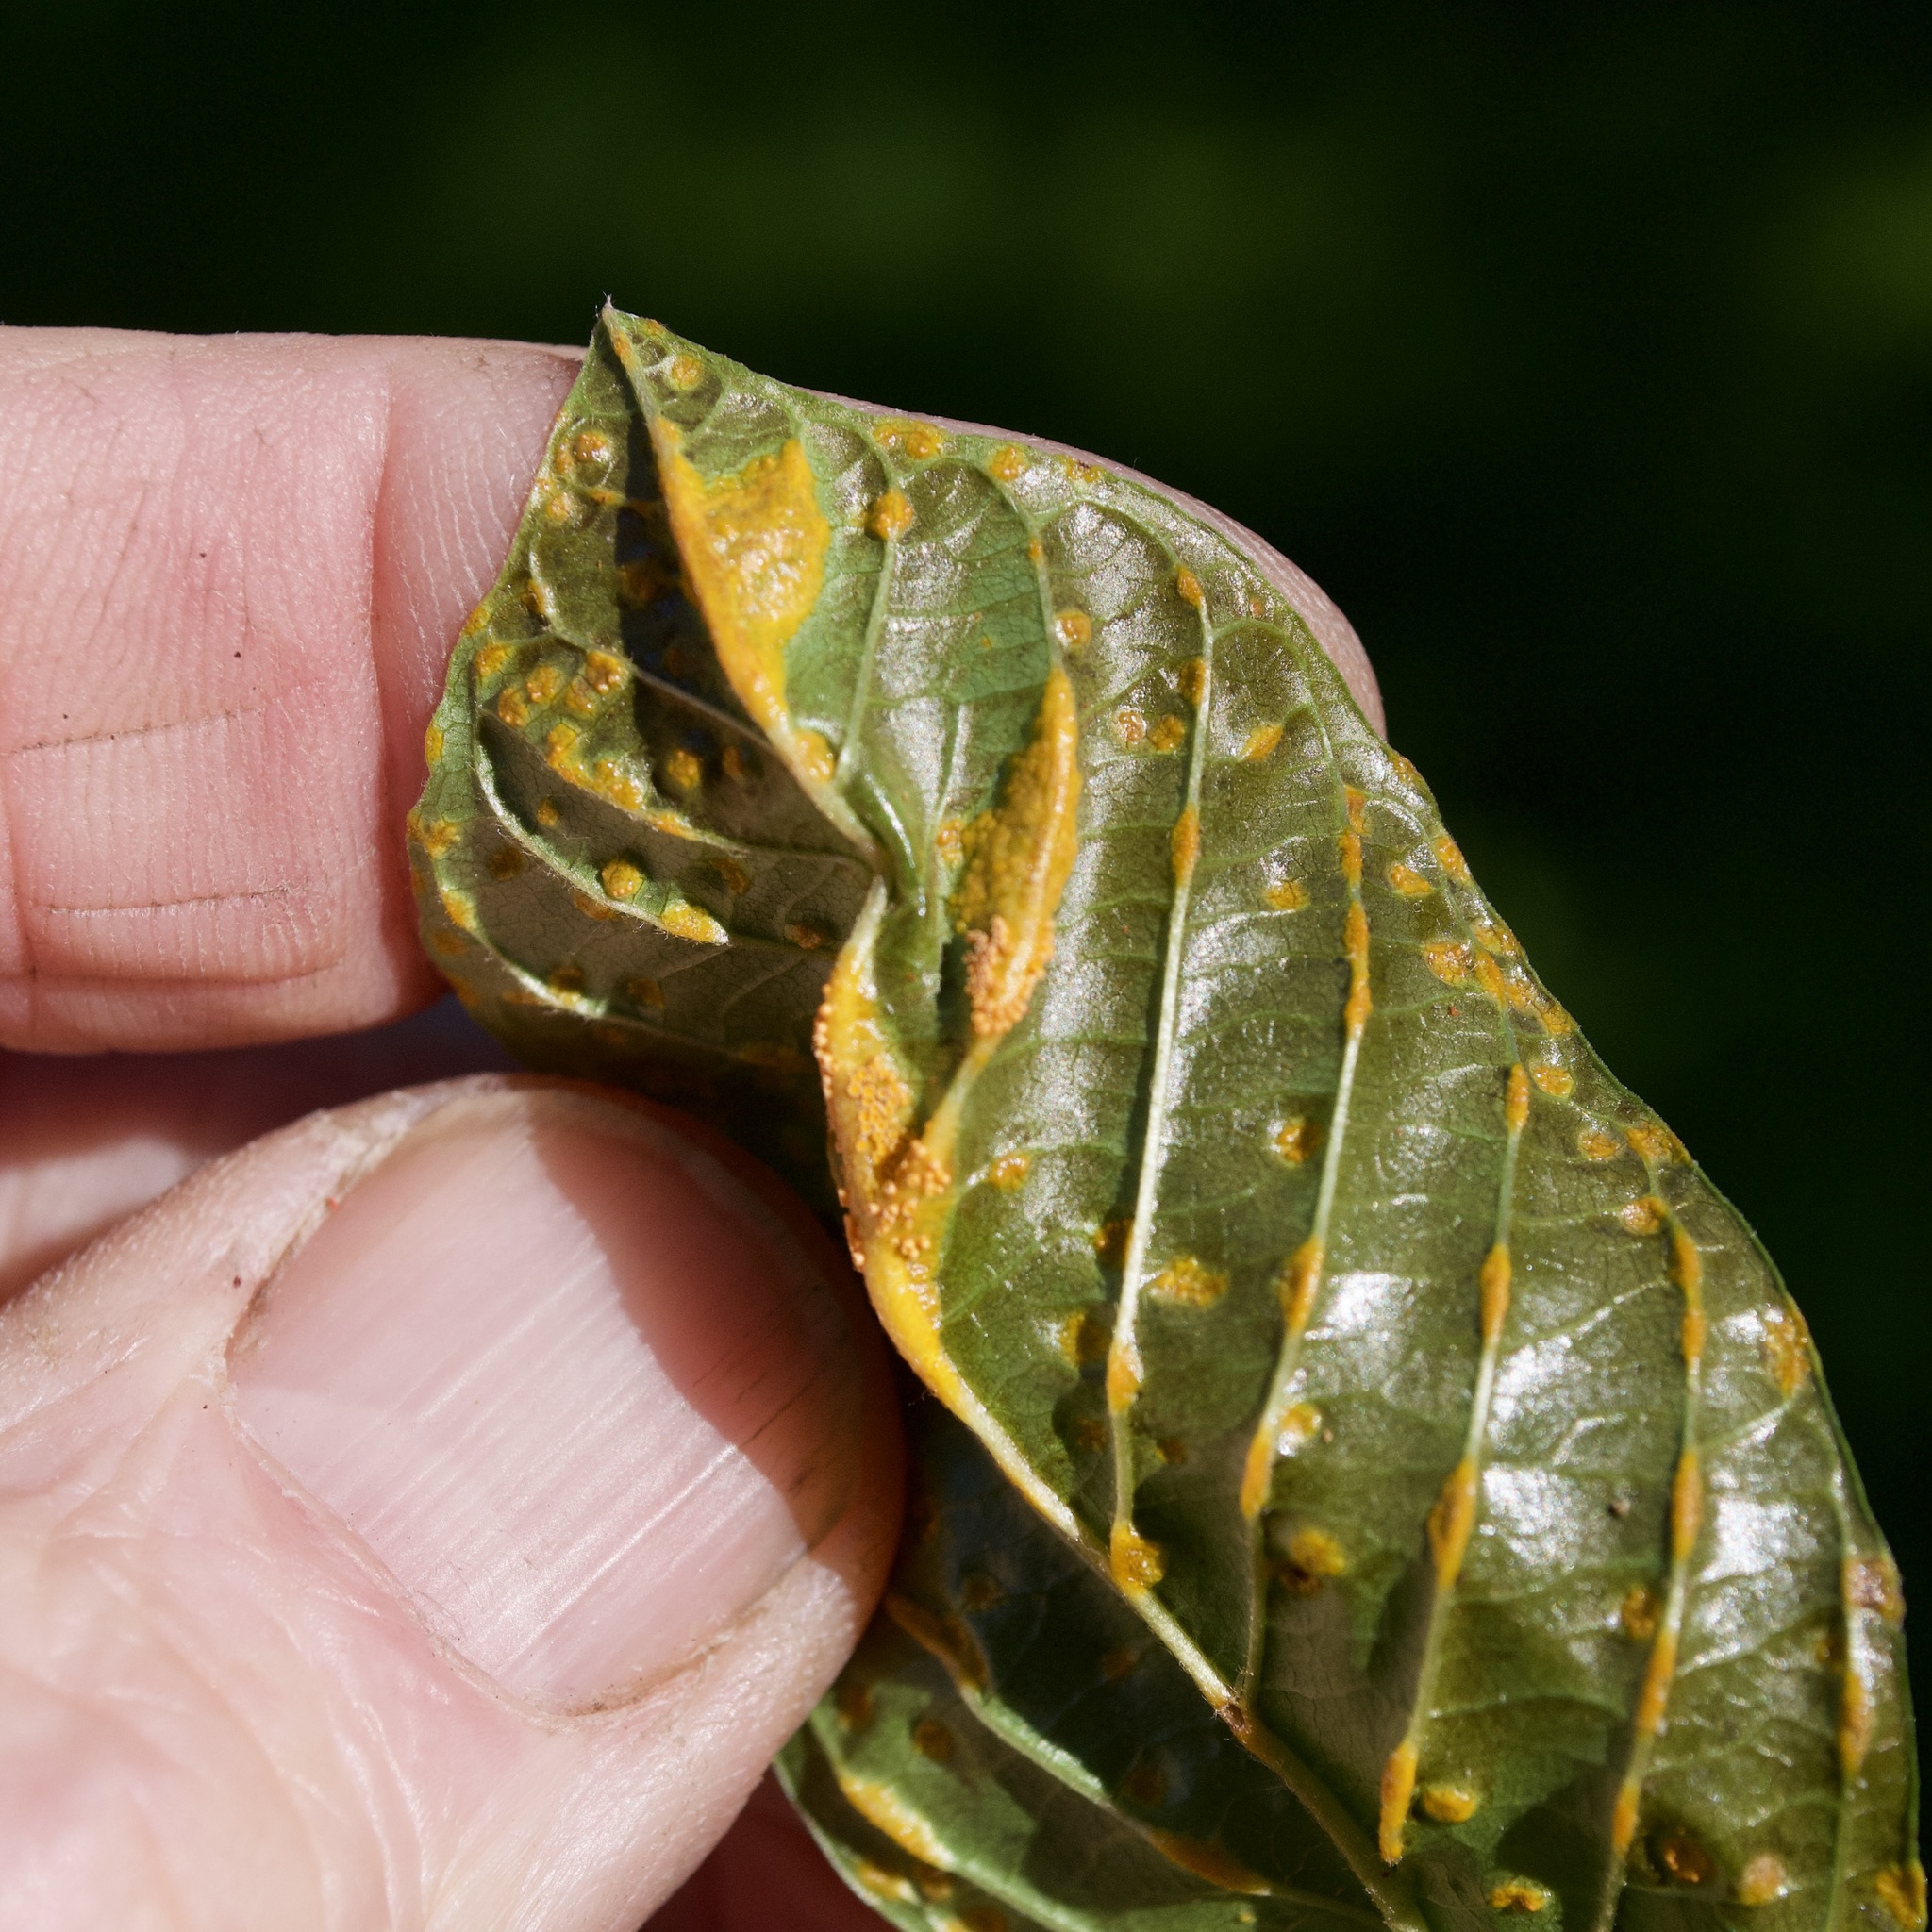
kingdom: Fungi
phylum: Basidiomycota
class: Pucciniomycetes
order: Pucciniales
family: Pucciniaceae
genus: Puccinia
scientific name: Puccinia coronata
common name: Crown rust
